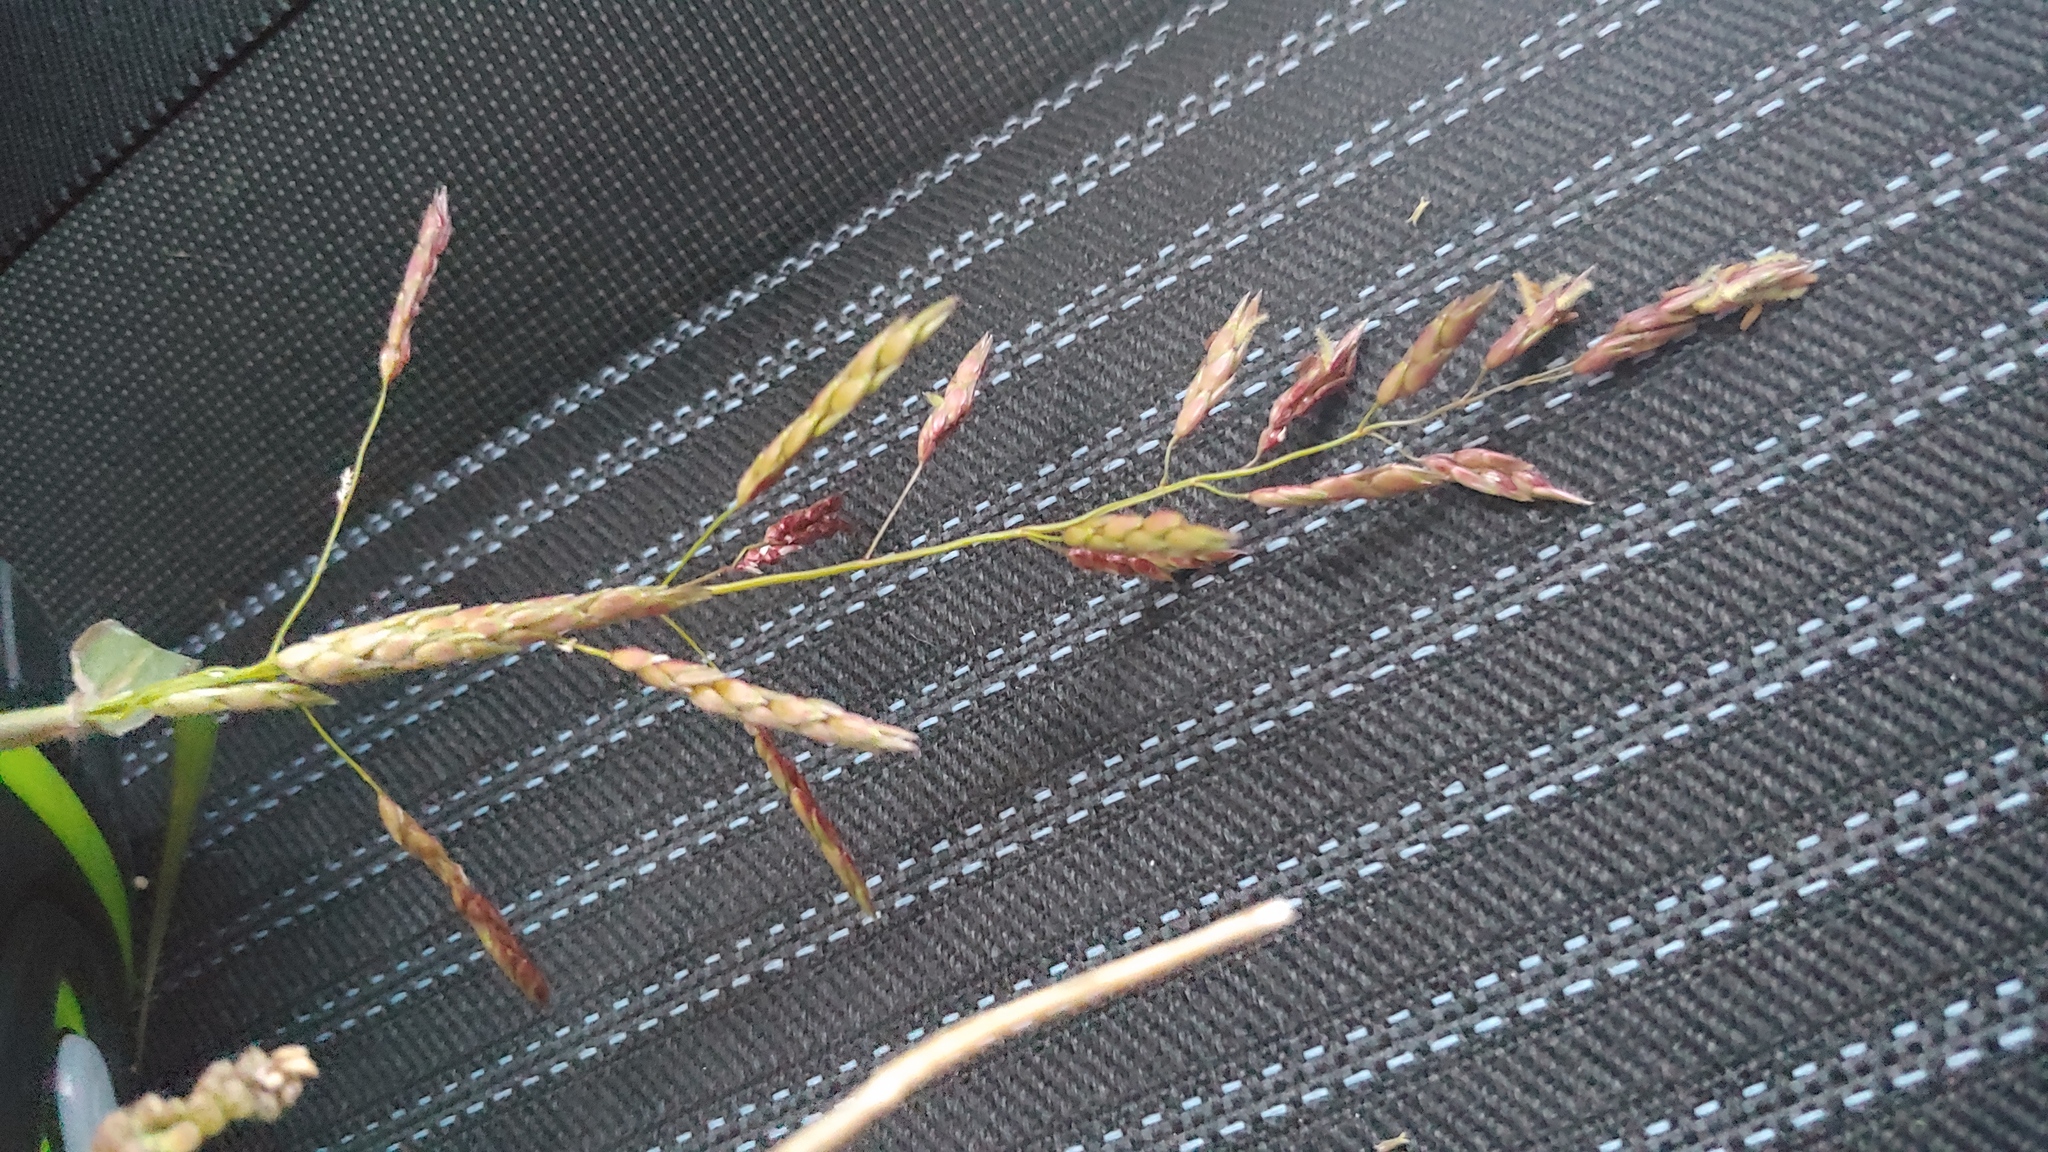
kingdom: Plantae
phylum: Tracheophyta
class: Liliopsida
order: Poales
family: Poaceae
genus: Sorghum
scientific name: Sorghum halepense
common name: Johnson-grass
